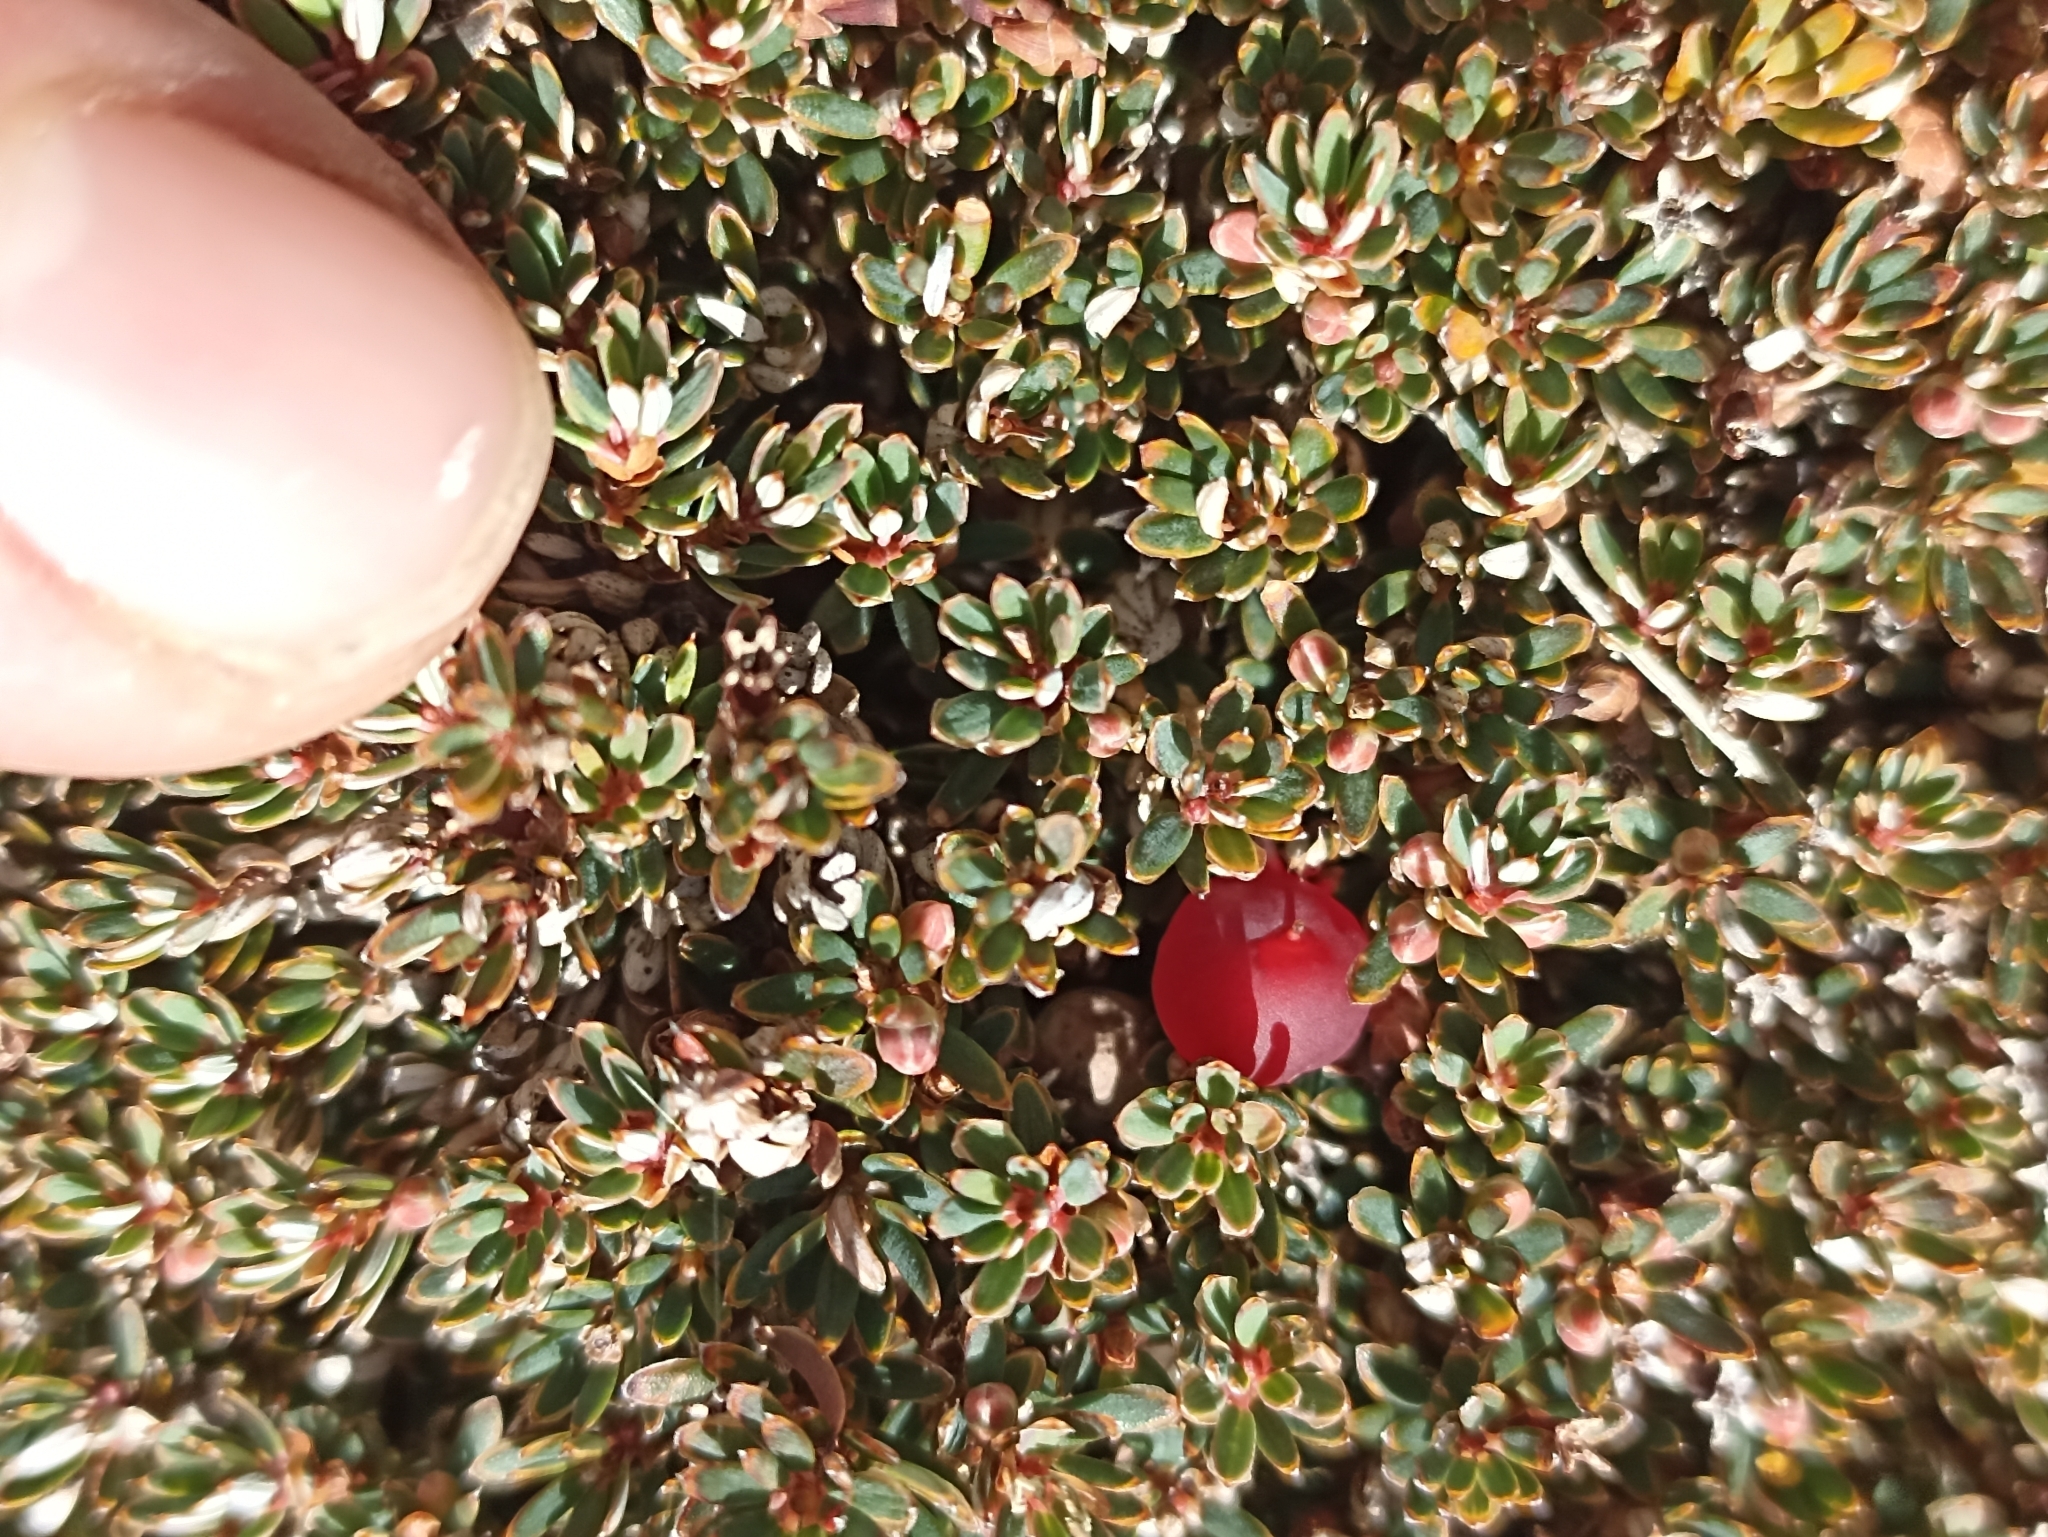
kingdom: Plantae
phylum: Tracheophyta
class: Magnoliopsida
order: Ericales
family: Ericaceae
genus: Pentachondra
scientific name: Pentachondra pumila
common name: Carpet-heath
